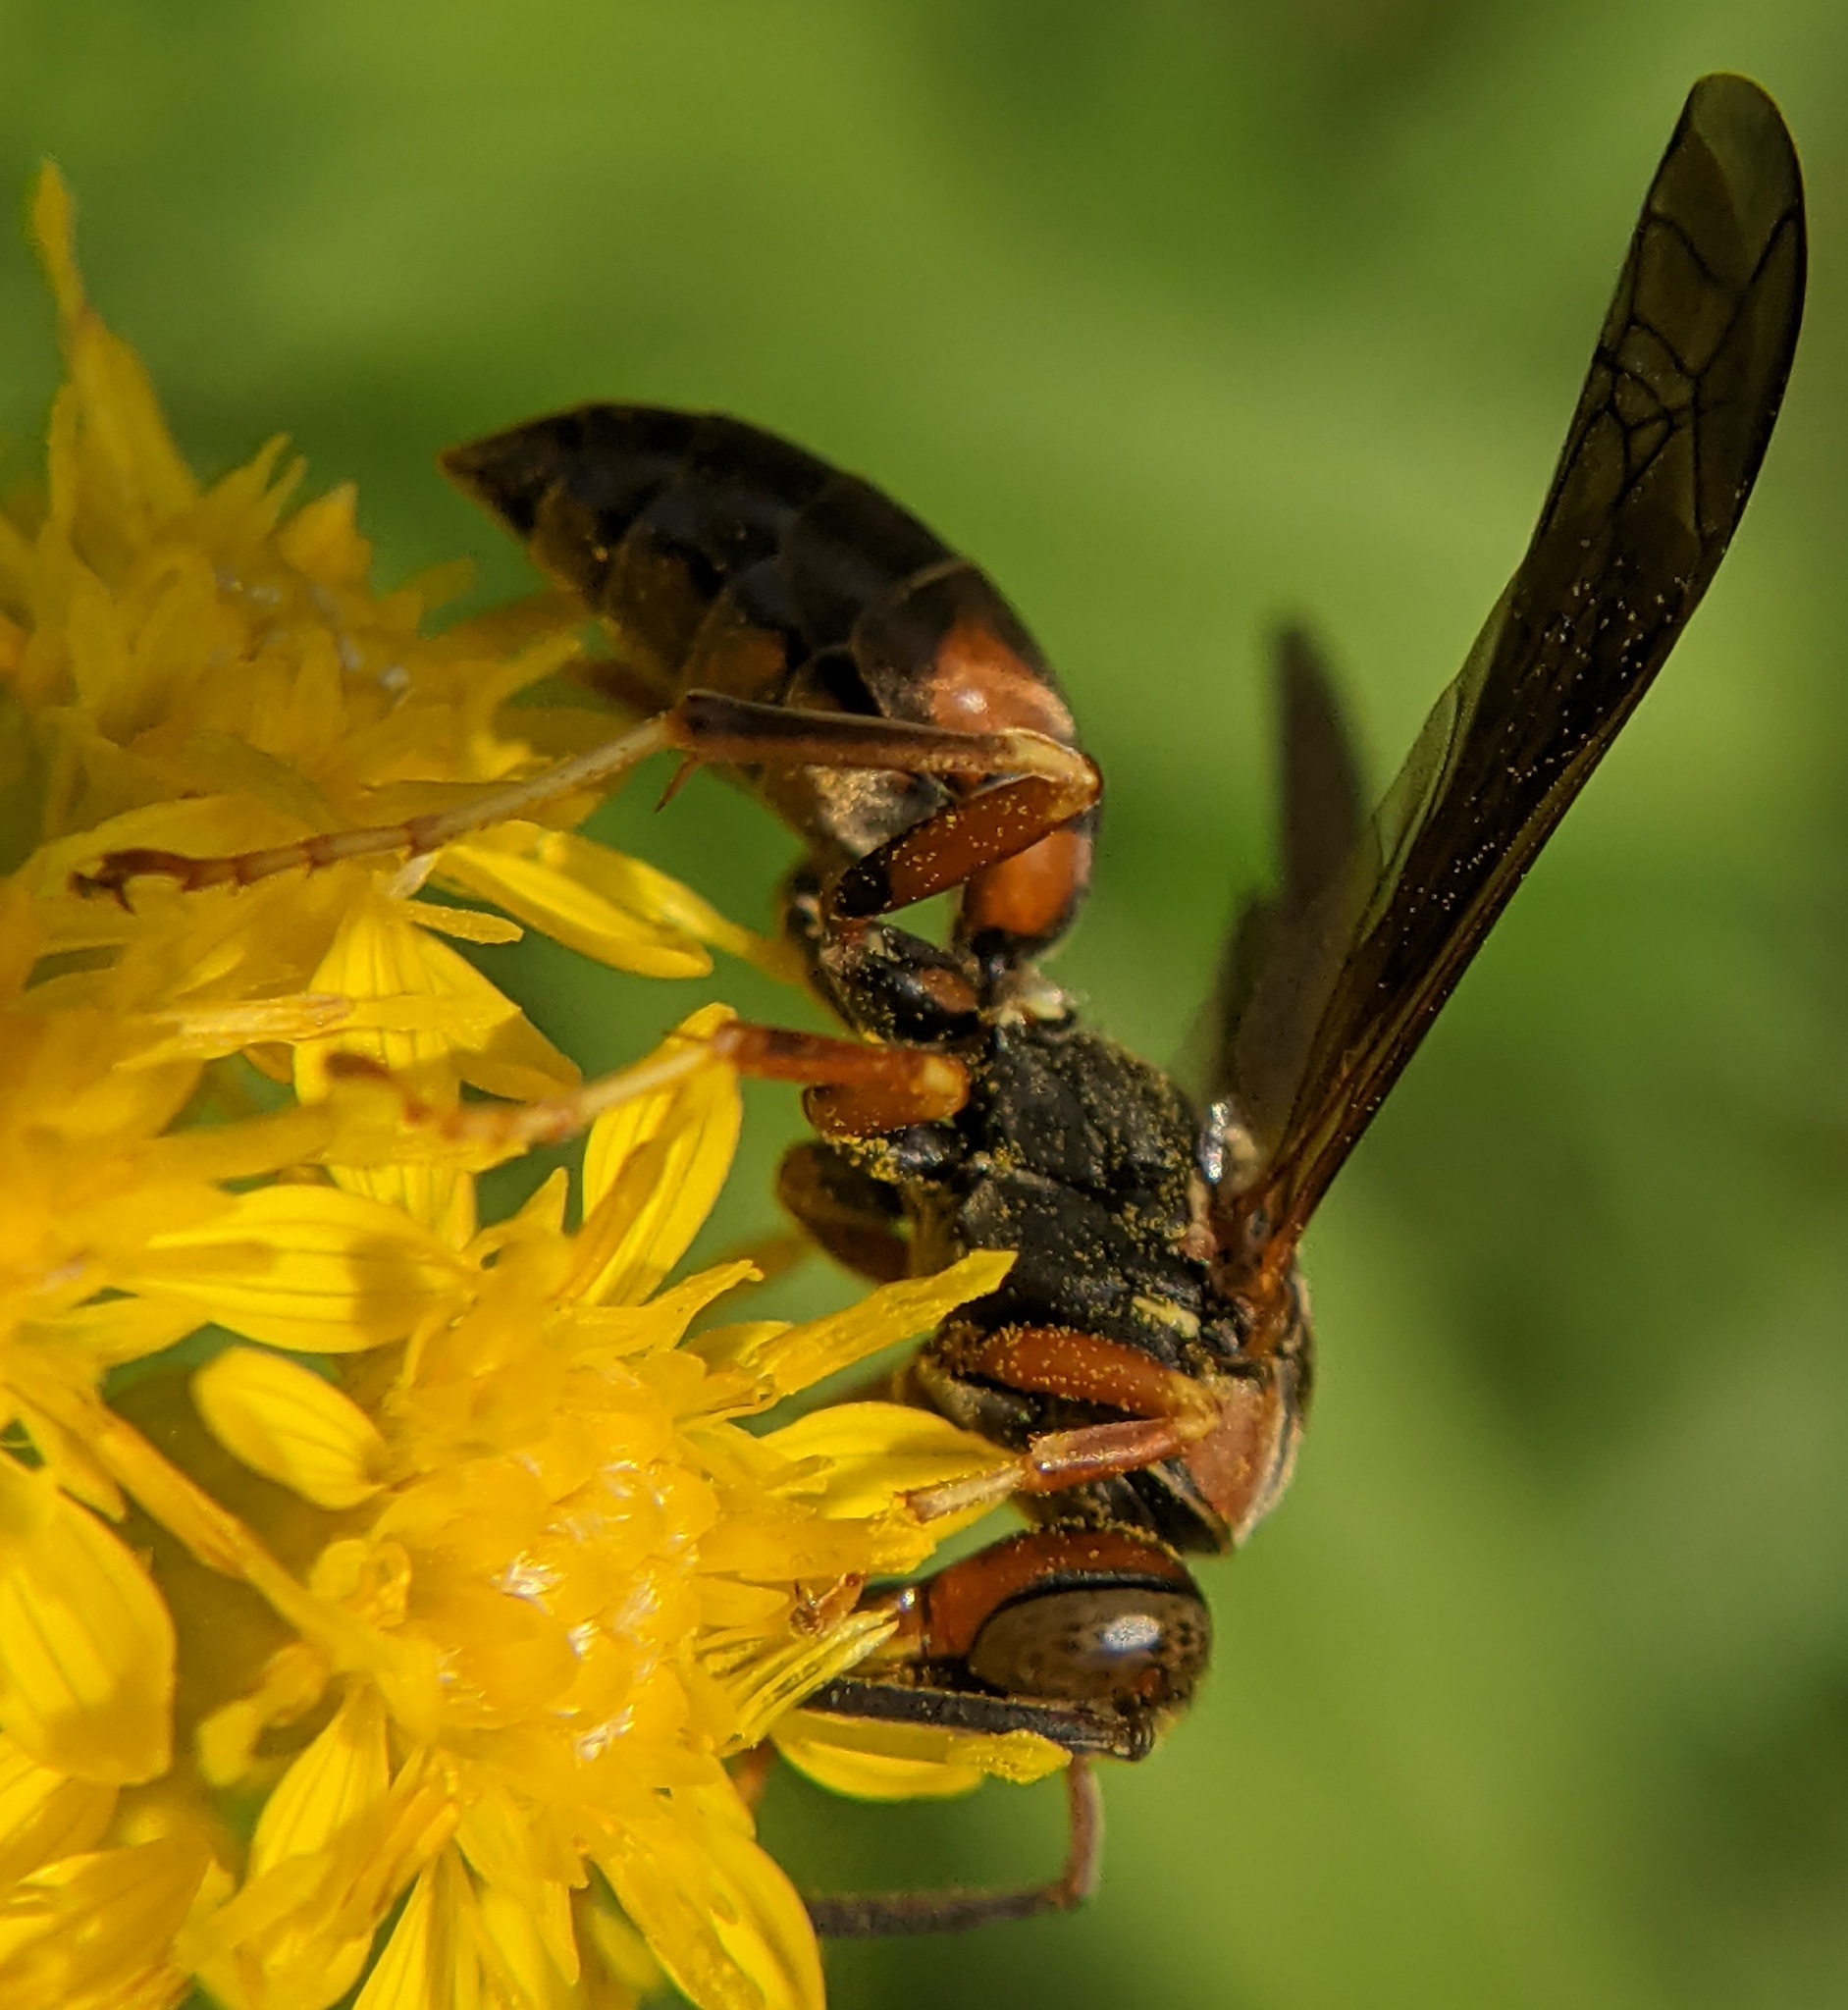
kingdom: Animalia
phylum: Arthropoda
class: Insecta
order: Hymenoptera
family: Eumenidae
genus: Polistes
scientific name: Polistes fuscatus
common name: Dark paper wasp
